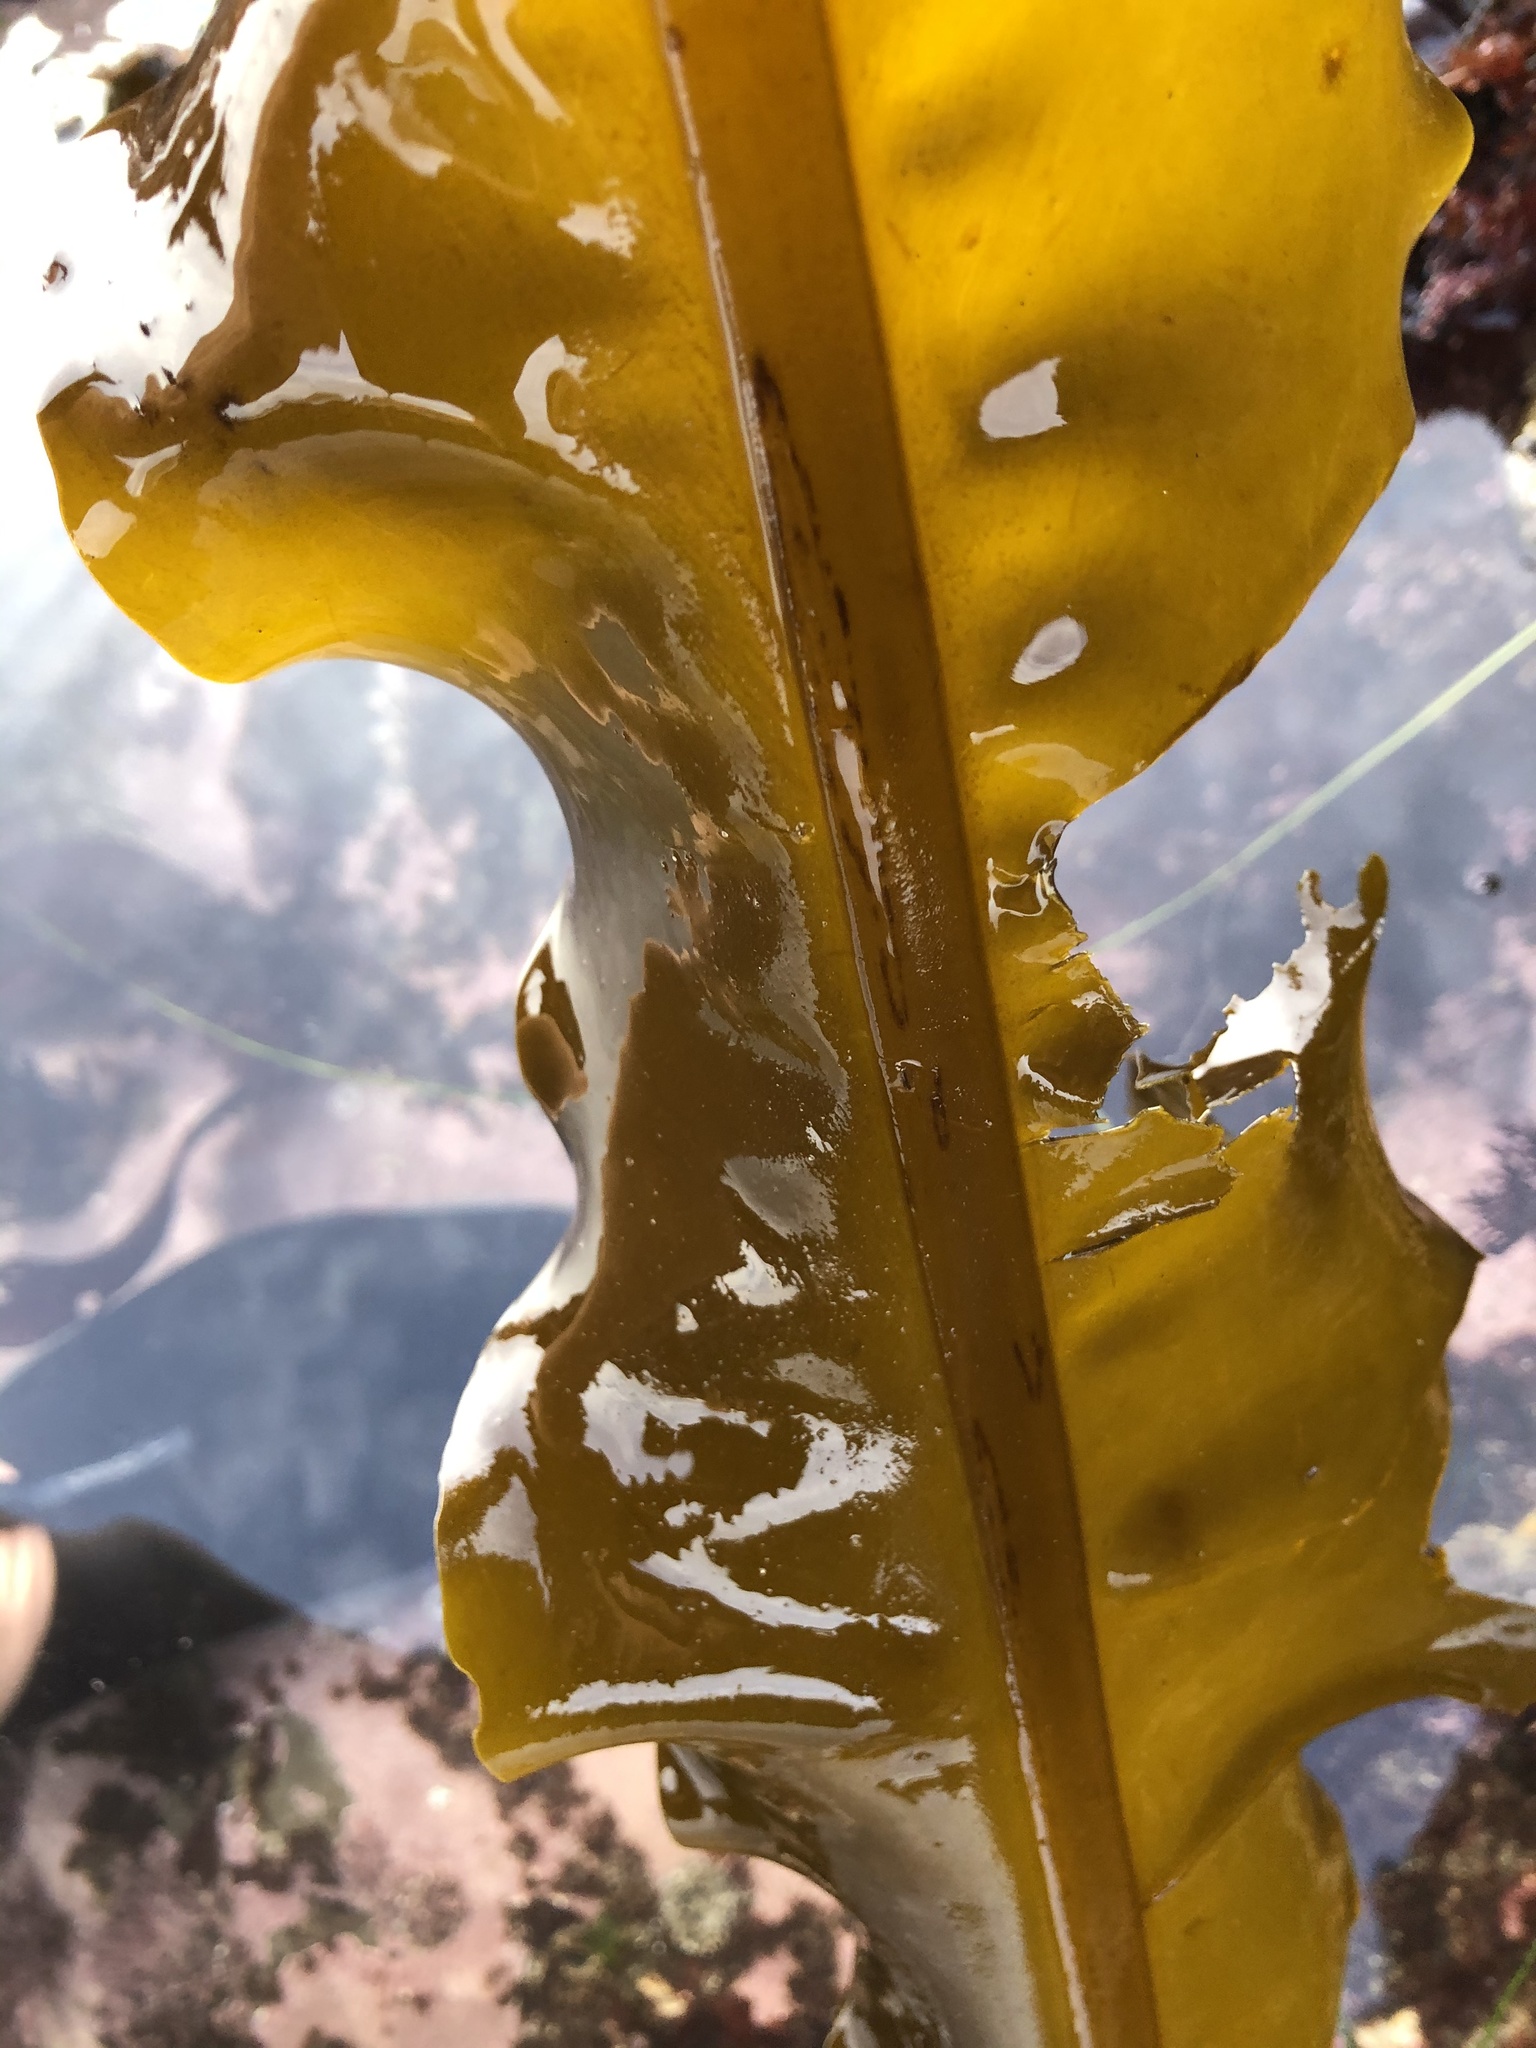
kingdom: Chromista
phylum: Ochrophyta
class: Phaeophyceae
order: Laminariales
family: Alariaceae
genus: Alaria
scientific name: Alaria marginata
